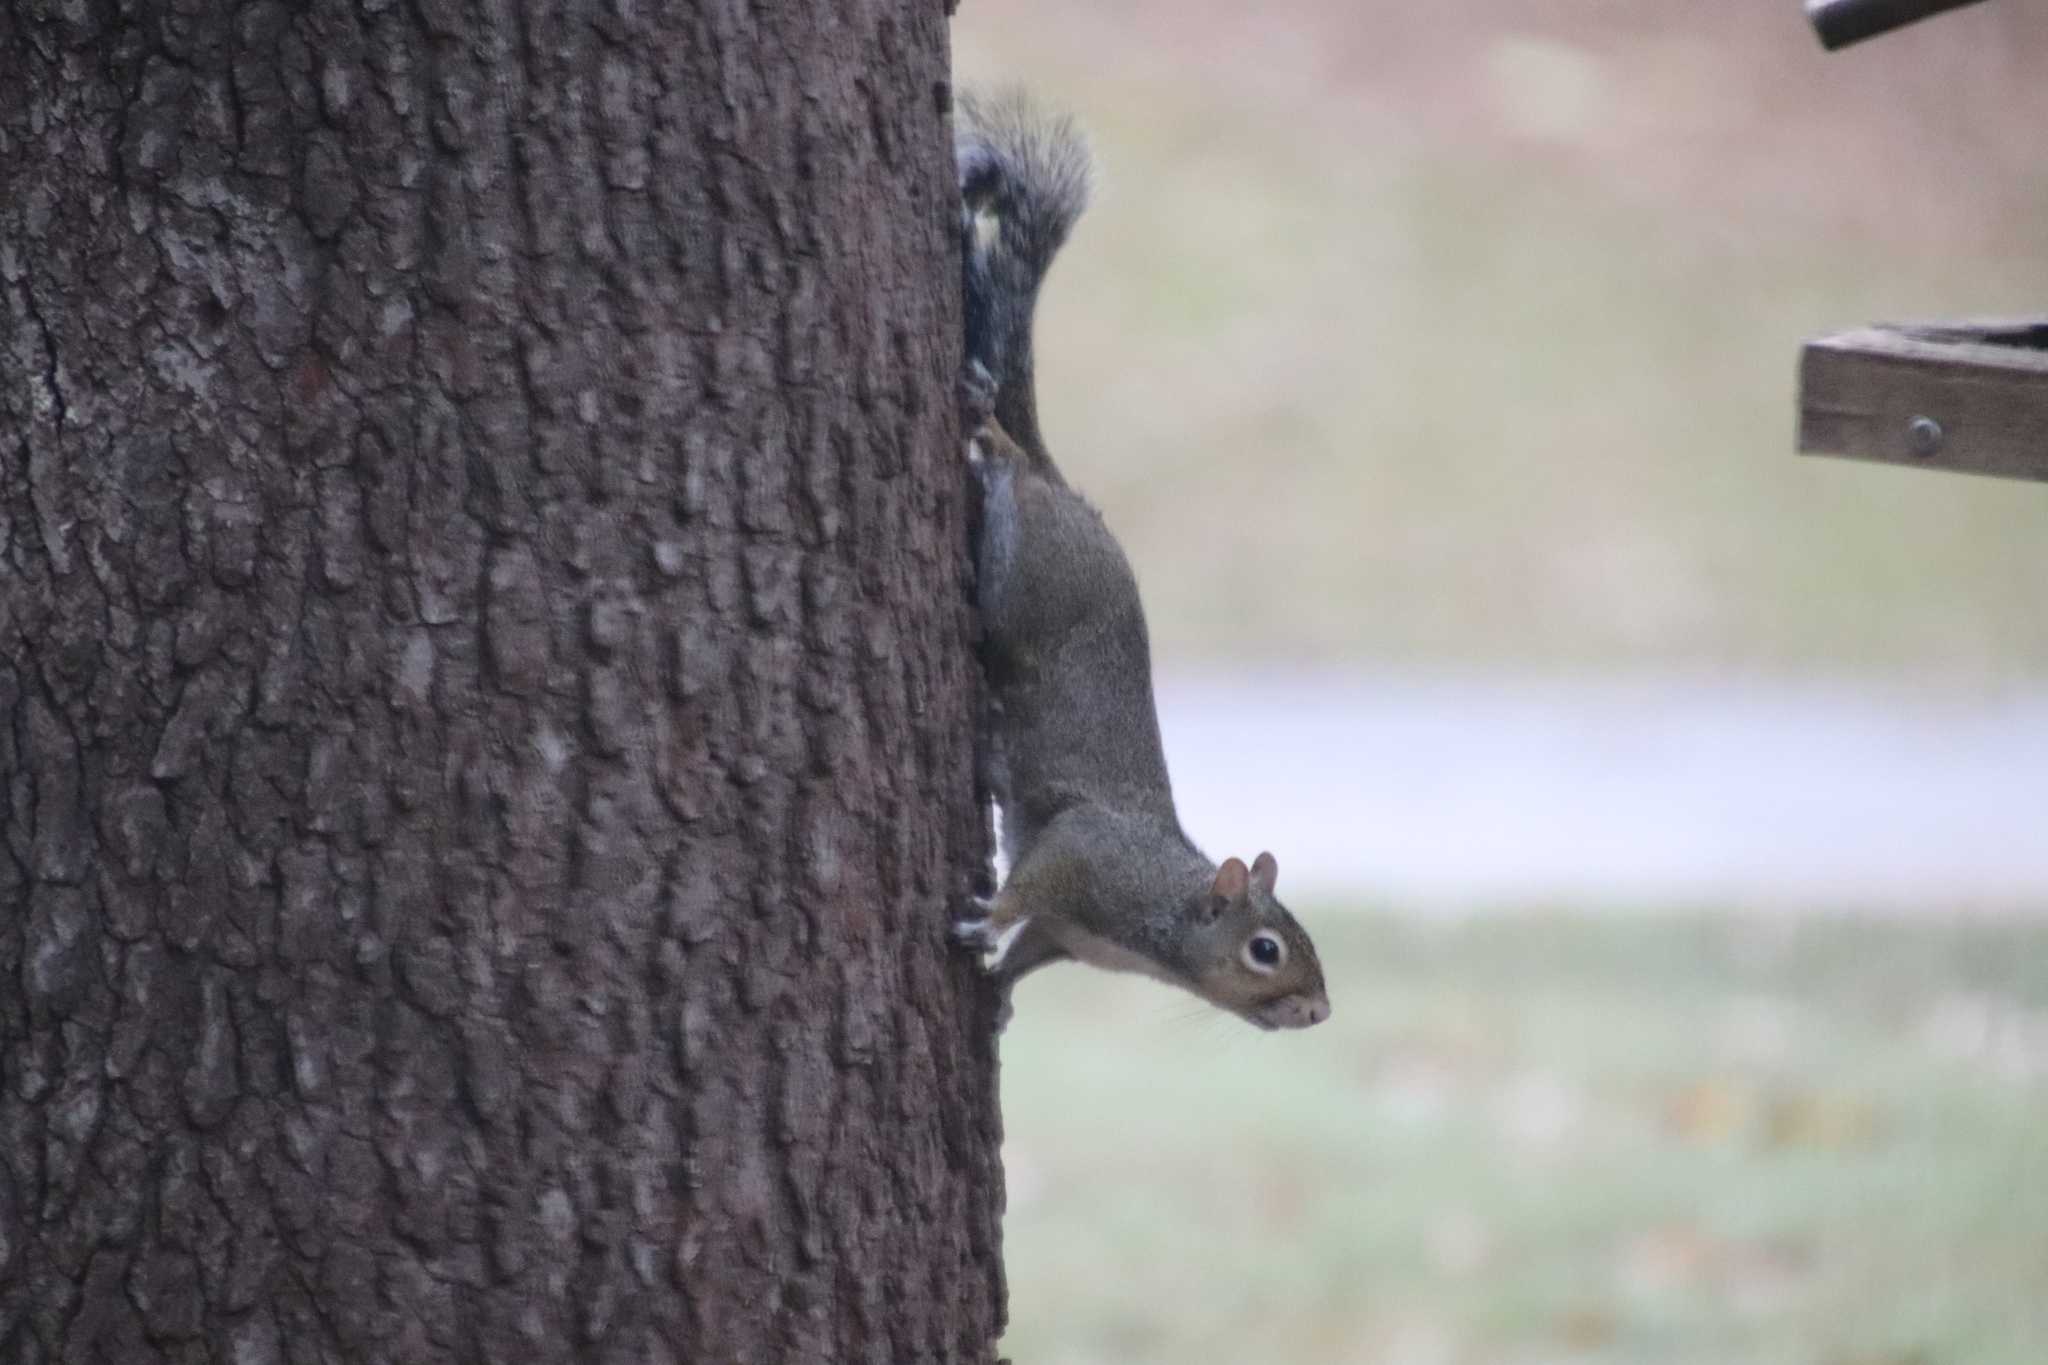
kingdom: Animalia
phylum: Chordata
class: Mammalia
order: Rodentia
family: Sciuridae
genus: Sciurus
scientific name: Sciurus carolinensis
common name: Eastern gray squirrel
